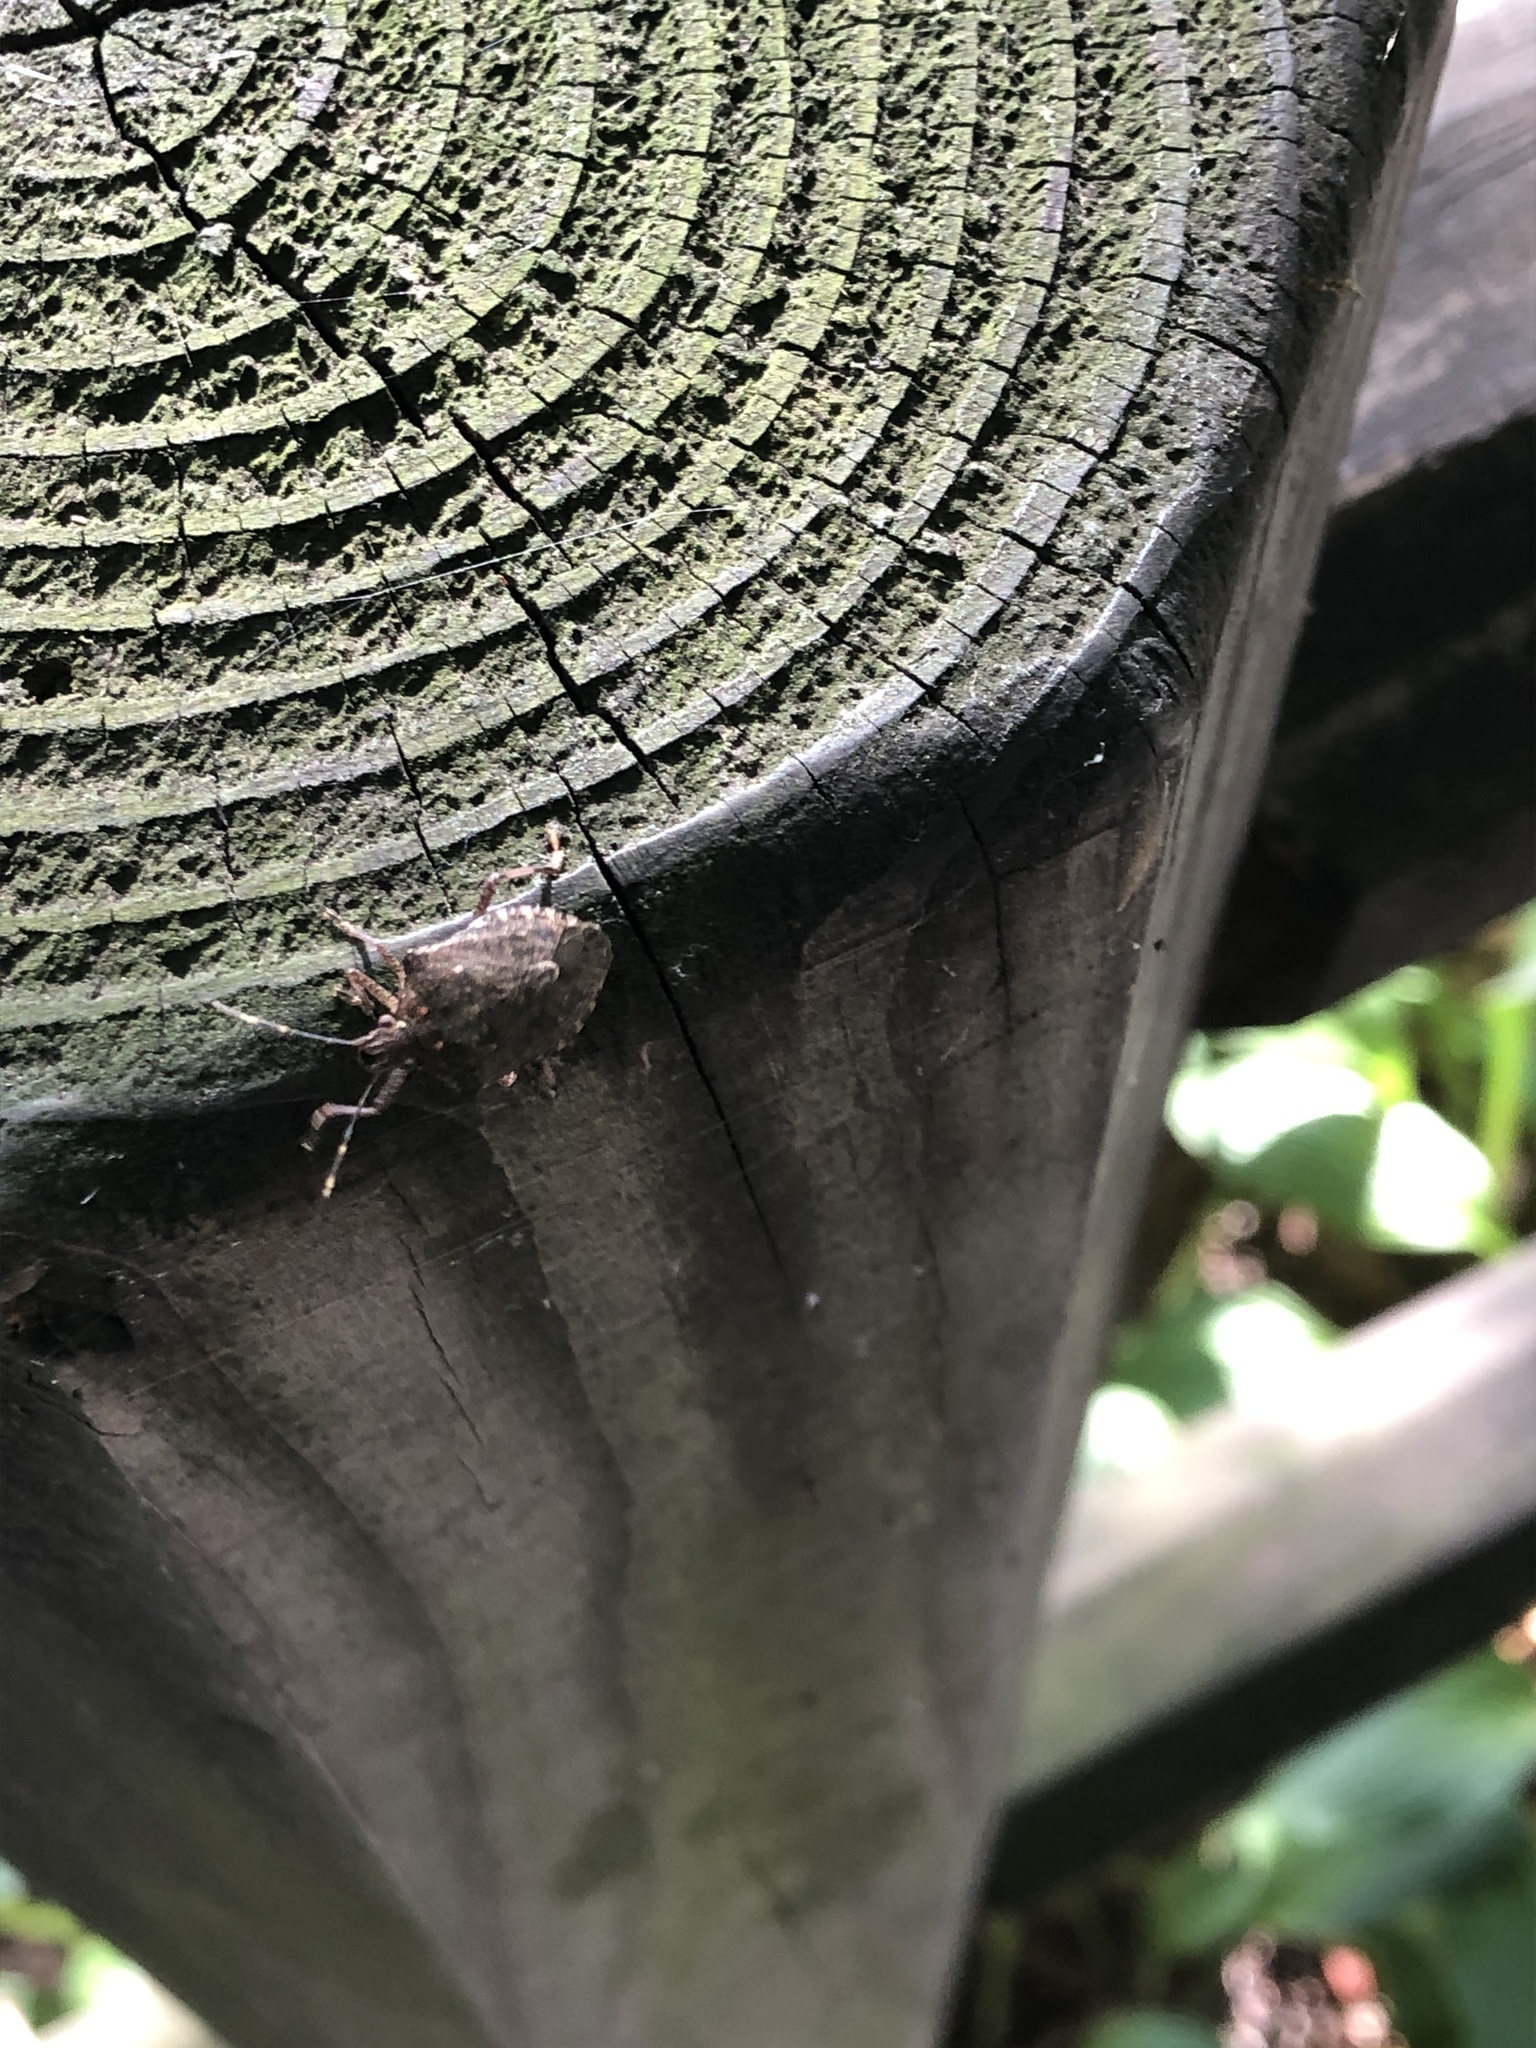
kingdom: Animalia
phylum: Arthropoda
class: Insecta
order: Hemiptera
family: Pentatomidae
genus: Halyomorpha
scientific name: Halyomorpha halys
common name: Brown marmorated stink bug
